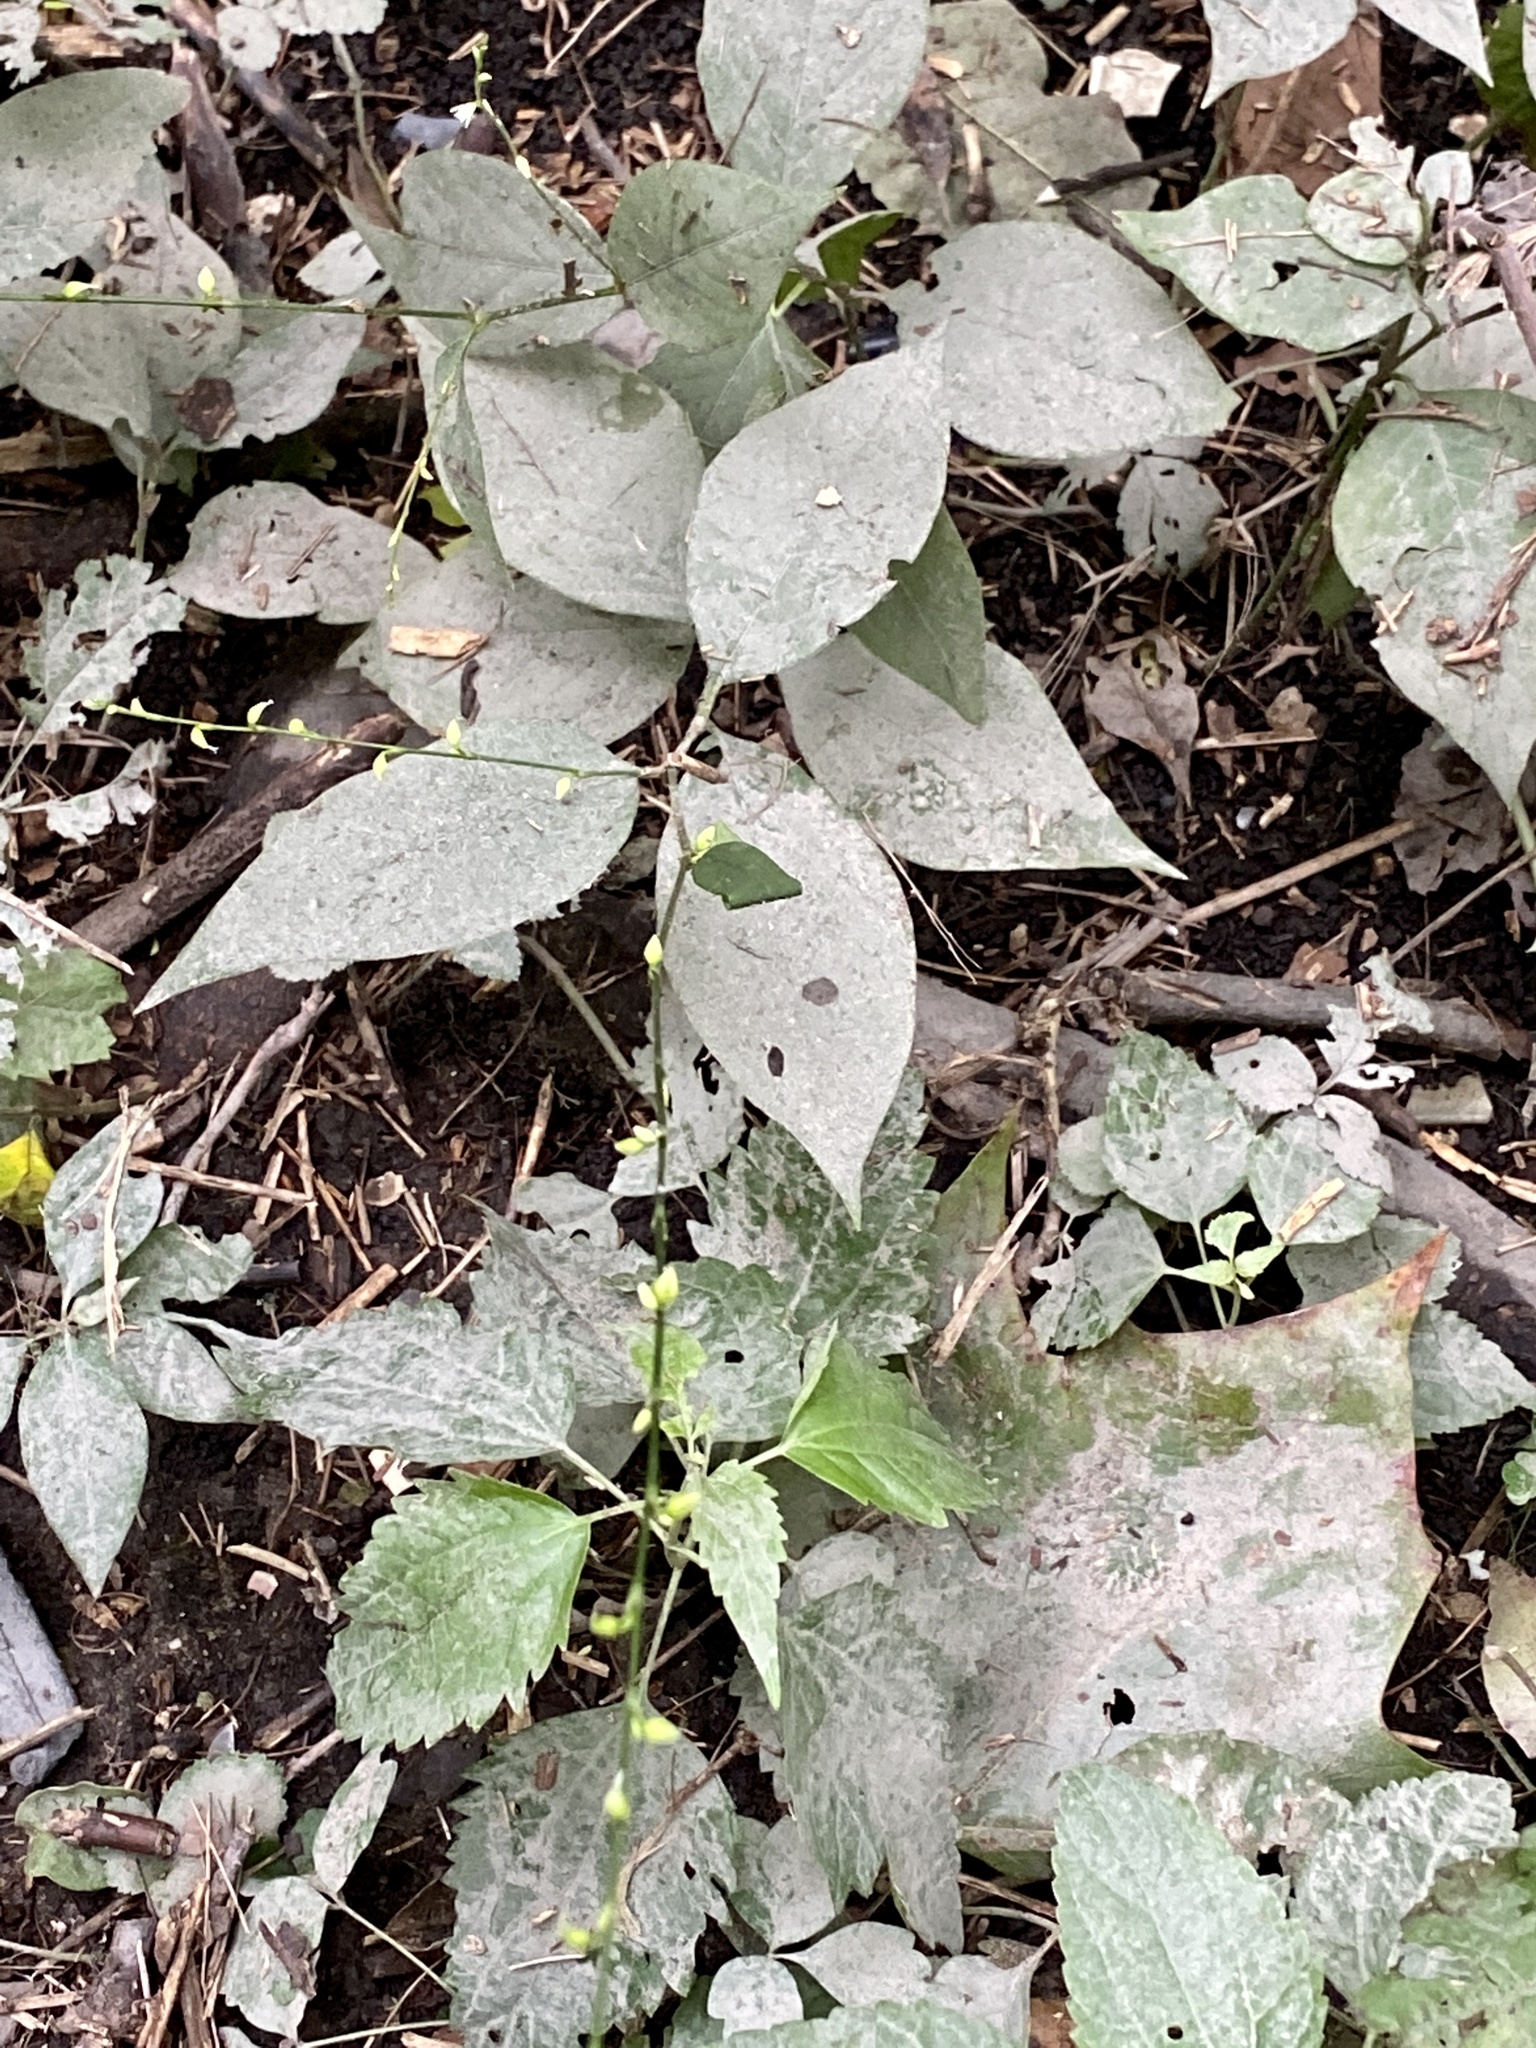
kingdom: Plantae
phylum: Tracheophyta
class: Magnoliopsida
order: Caryophyllales
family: Polygonaceae
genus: Persicaria
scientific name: Persicaria virginiana
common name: Jumpseed
